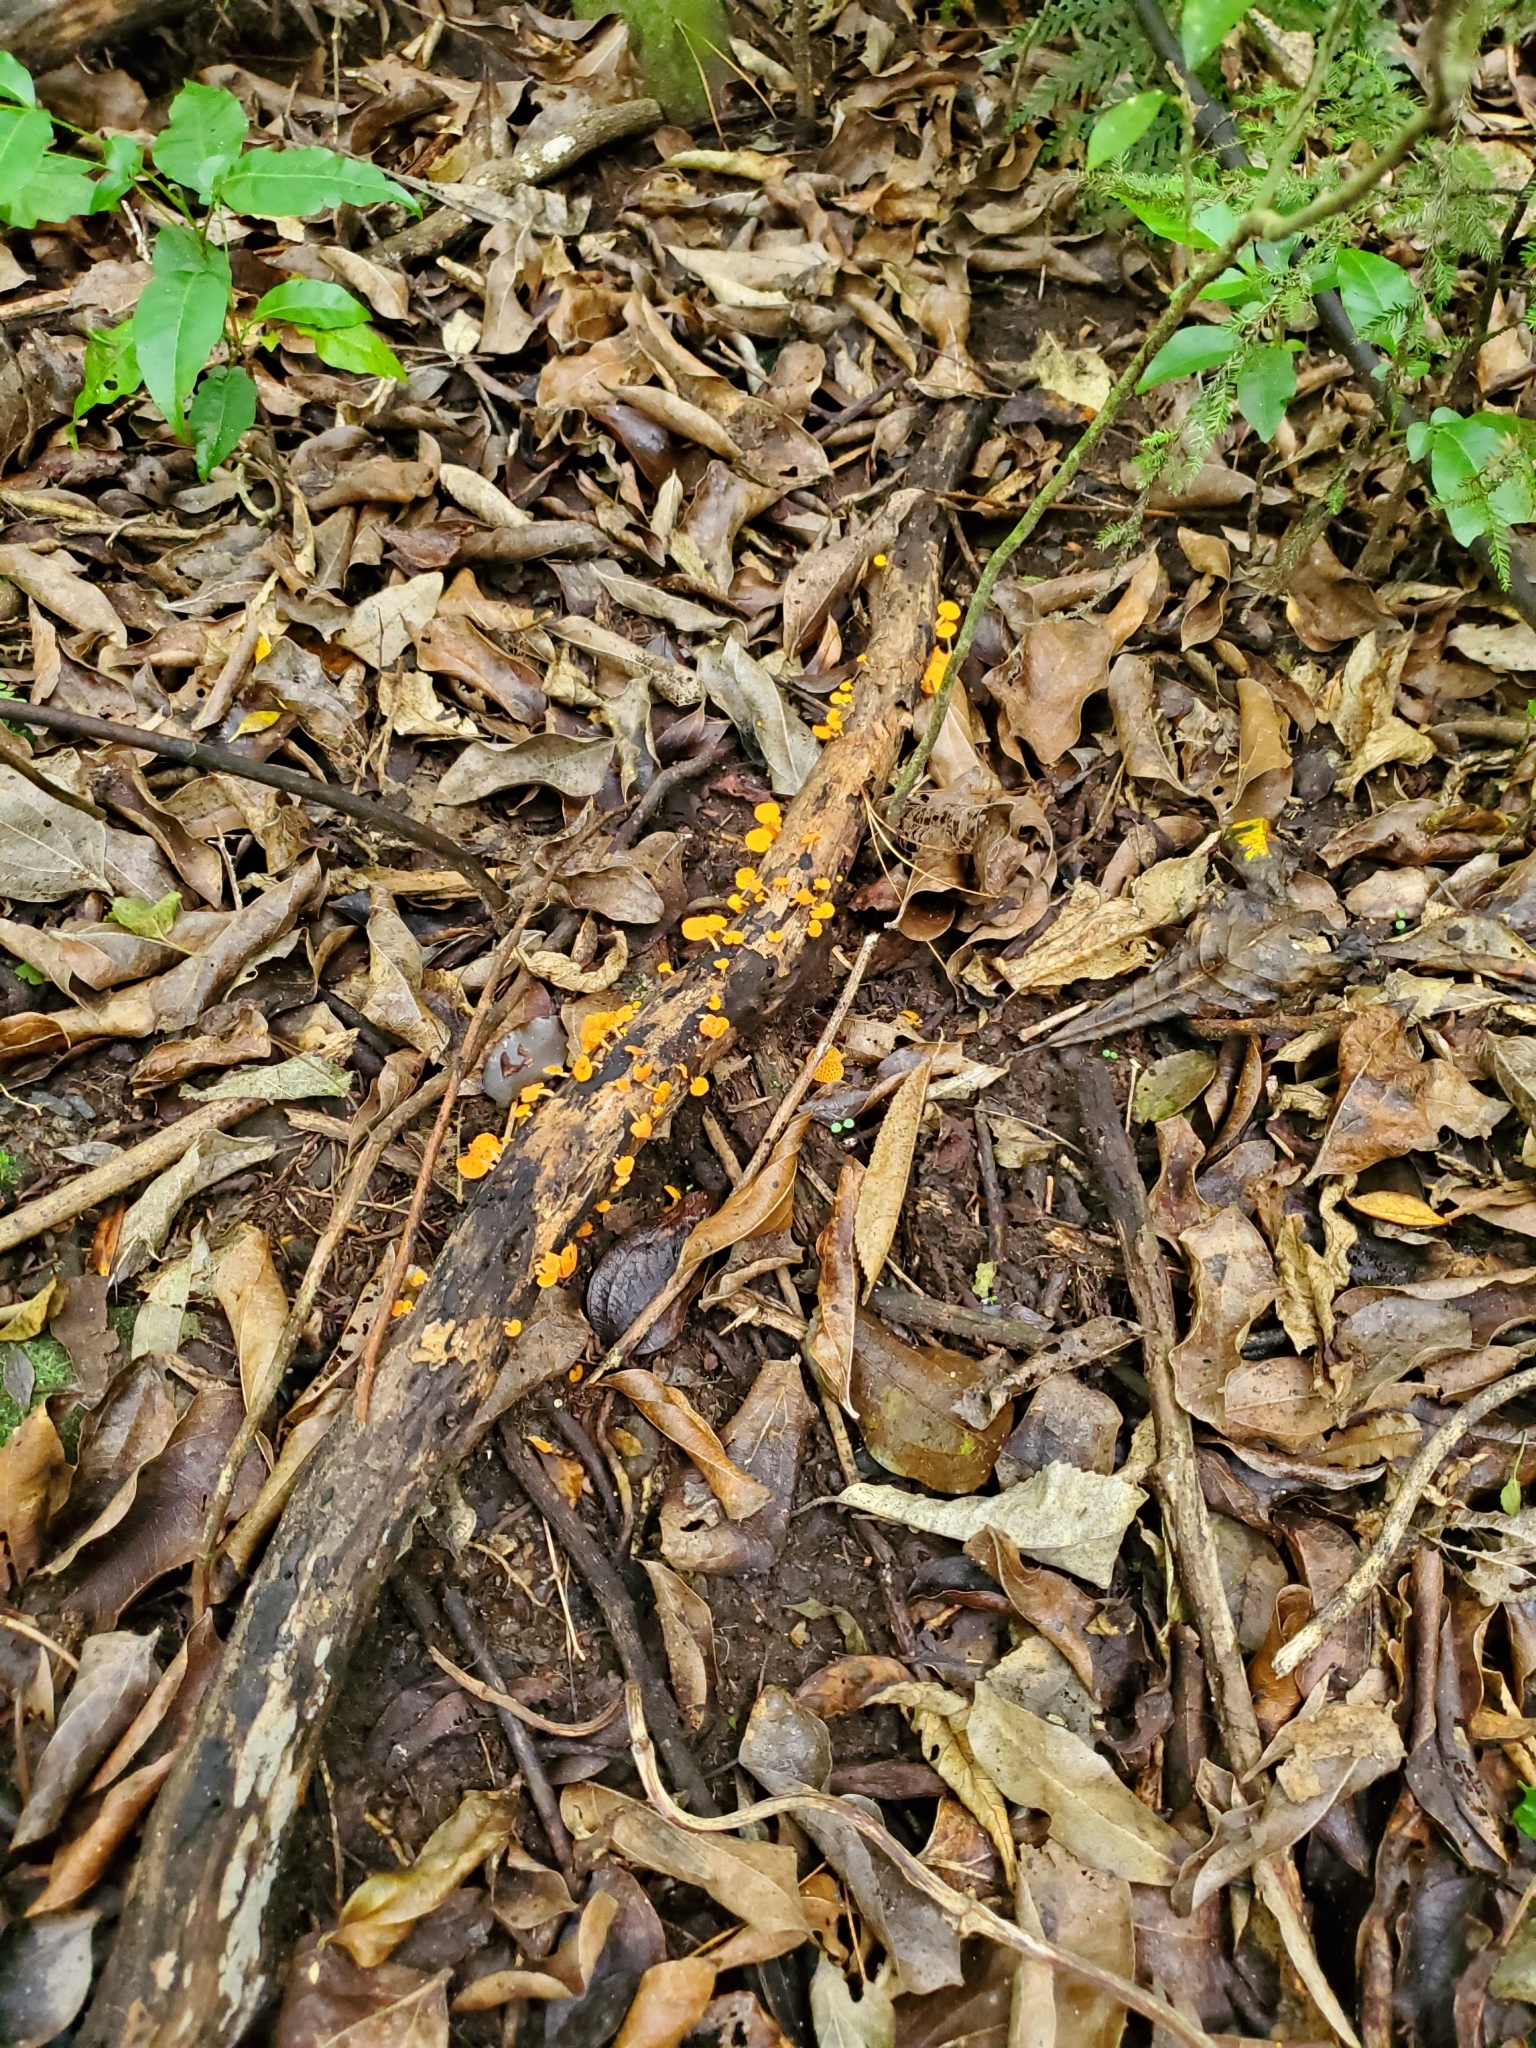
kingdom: Fungi
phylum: Basidiomycota
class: Agaricomycetes
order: Agaricales
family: Mycenaceae
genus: Favolaschia
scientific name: Favolaschia claudopus
